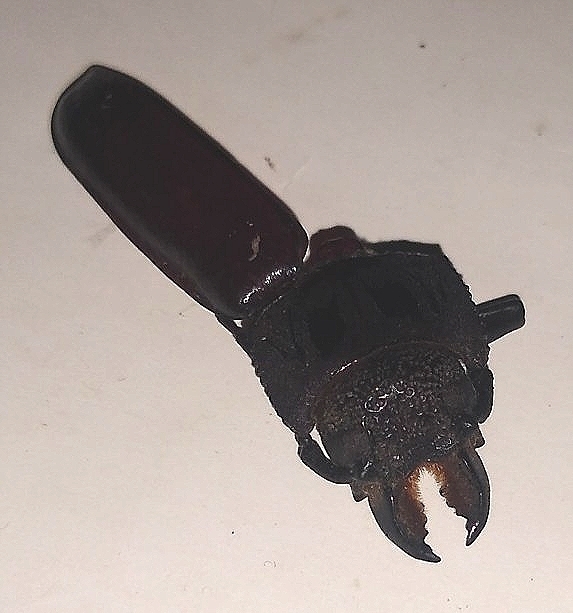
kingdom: Animalia
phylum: Arthropoda
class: Insecta
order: Coleoptera
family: Cerambycidae
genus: Mallodon
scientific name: Mallodon dasystomum
